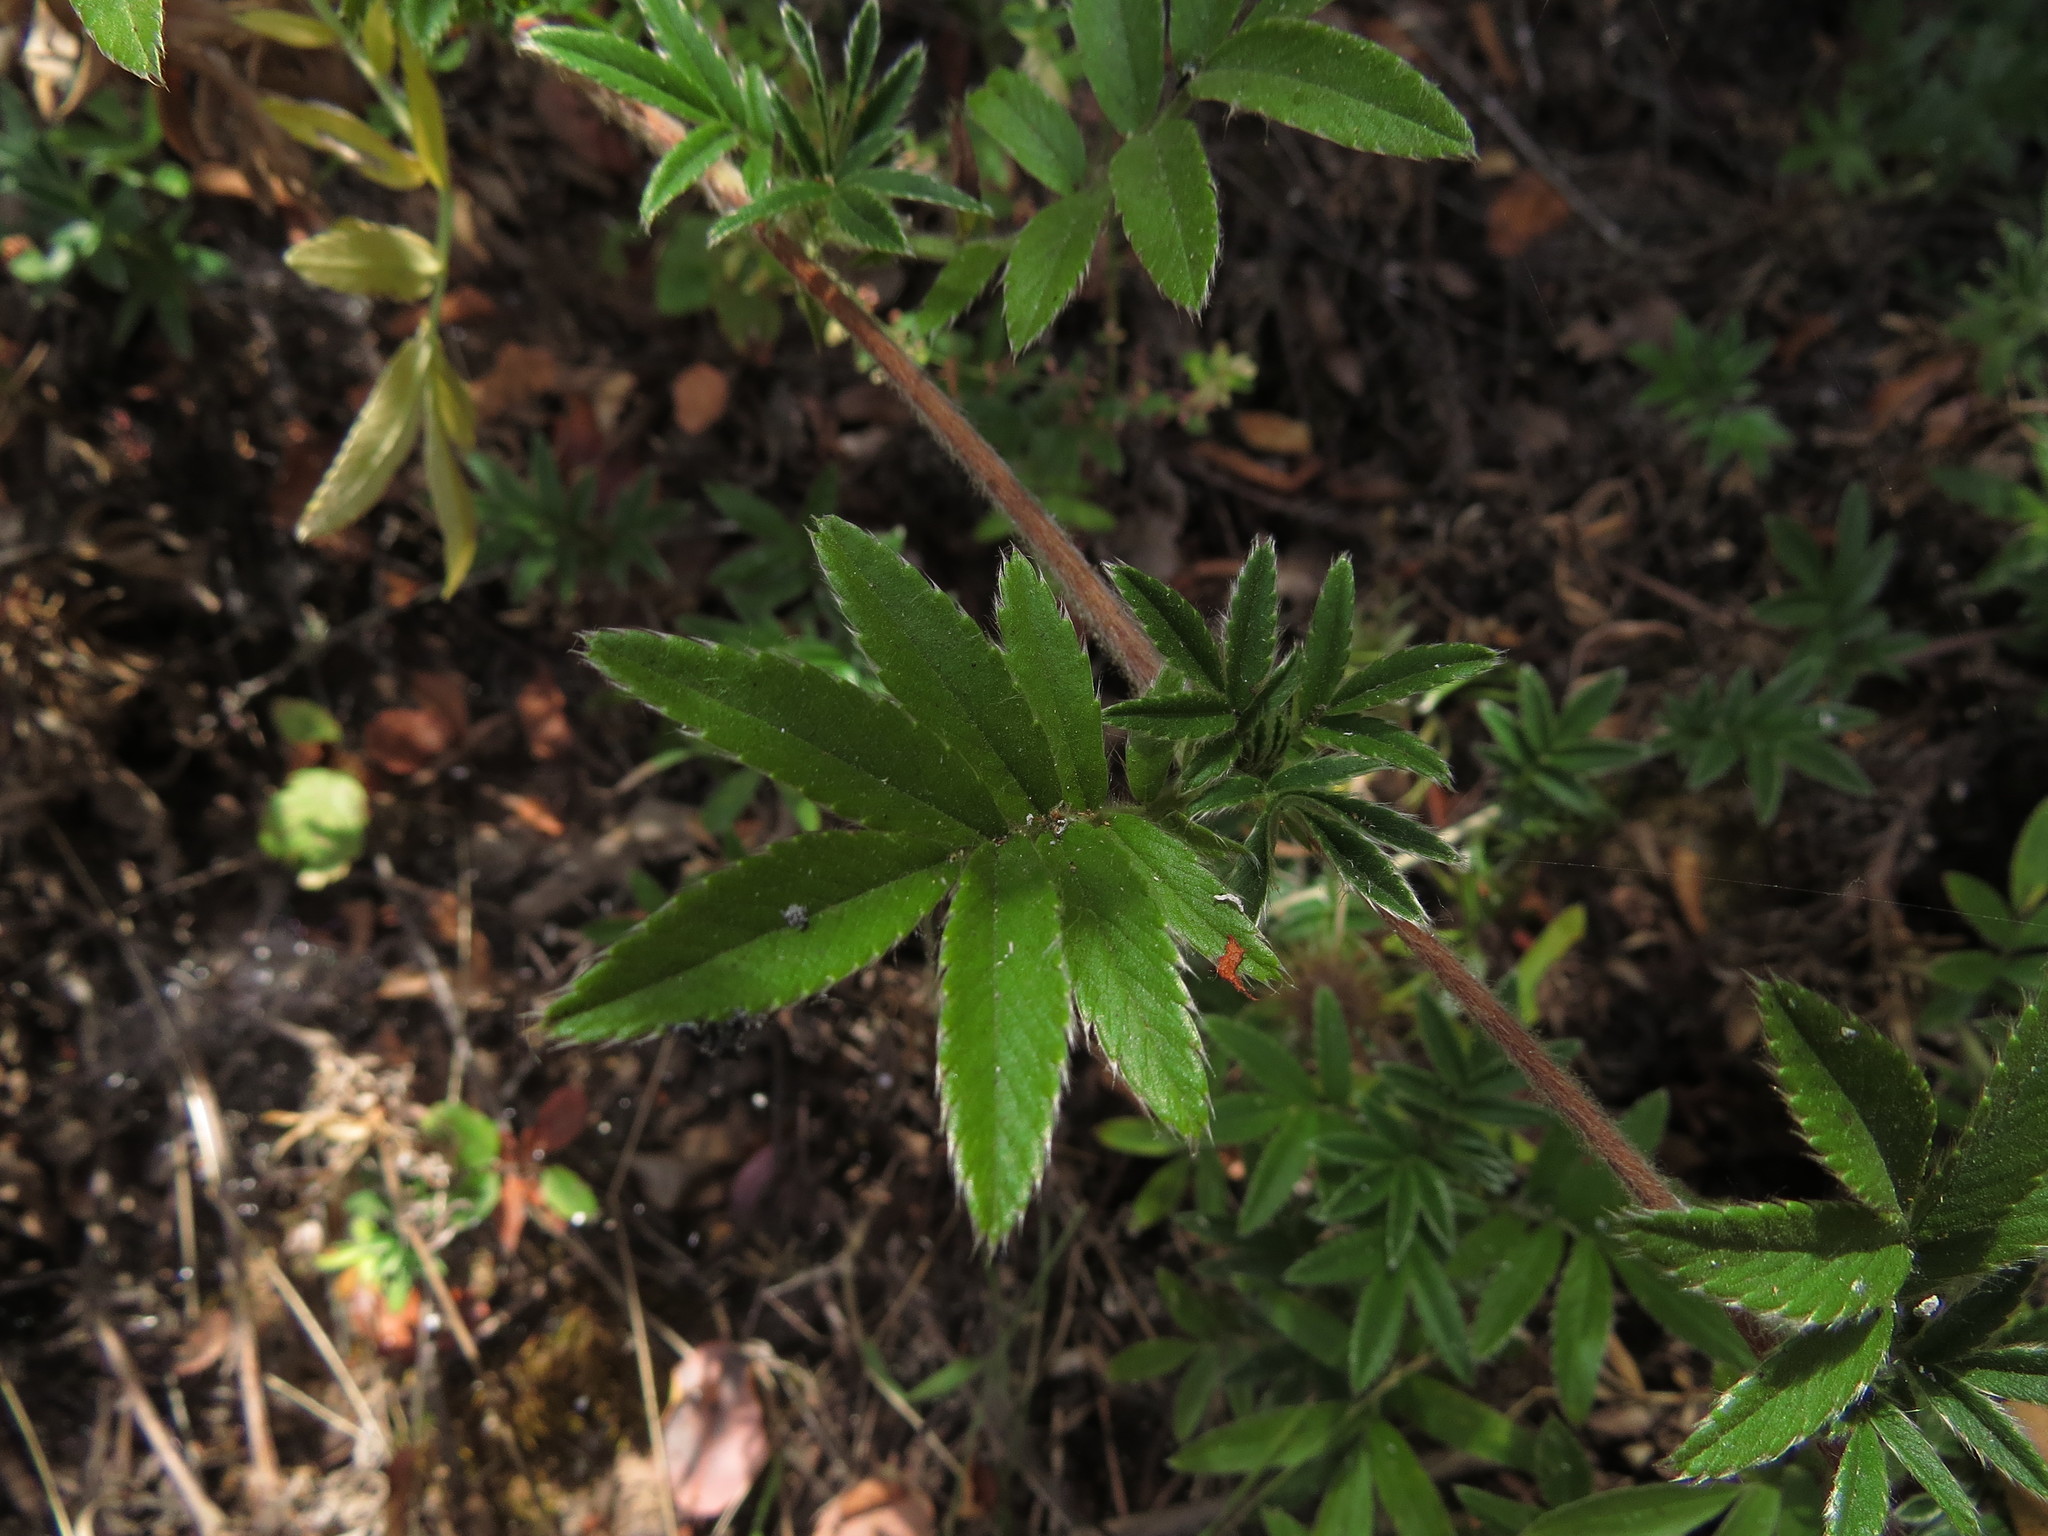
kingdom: Plantae
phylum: Tracheophyta
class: Magnoliopsida
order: Rosales
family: Rosaceae
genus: Acaena
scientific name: Acaena argentea
